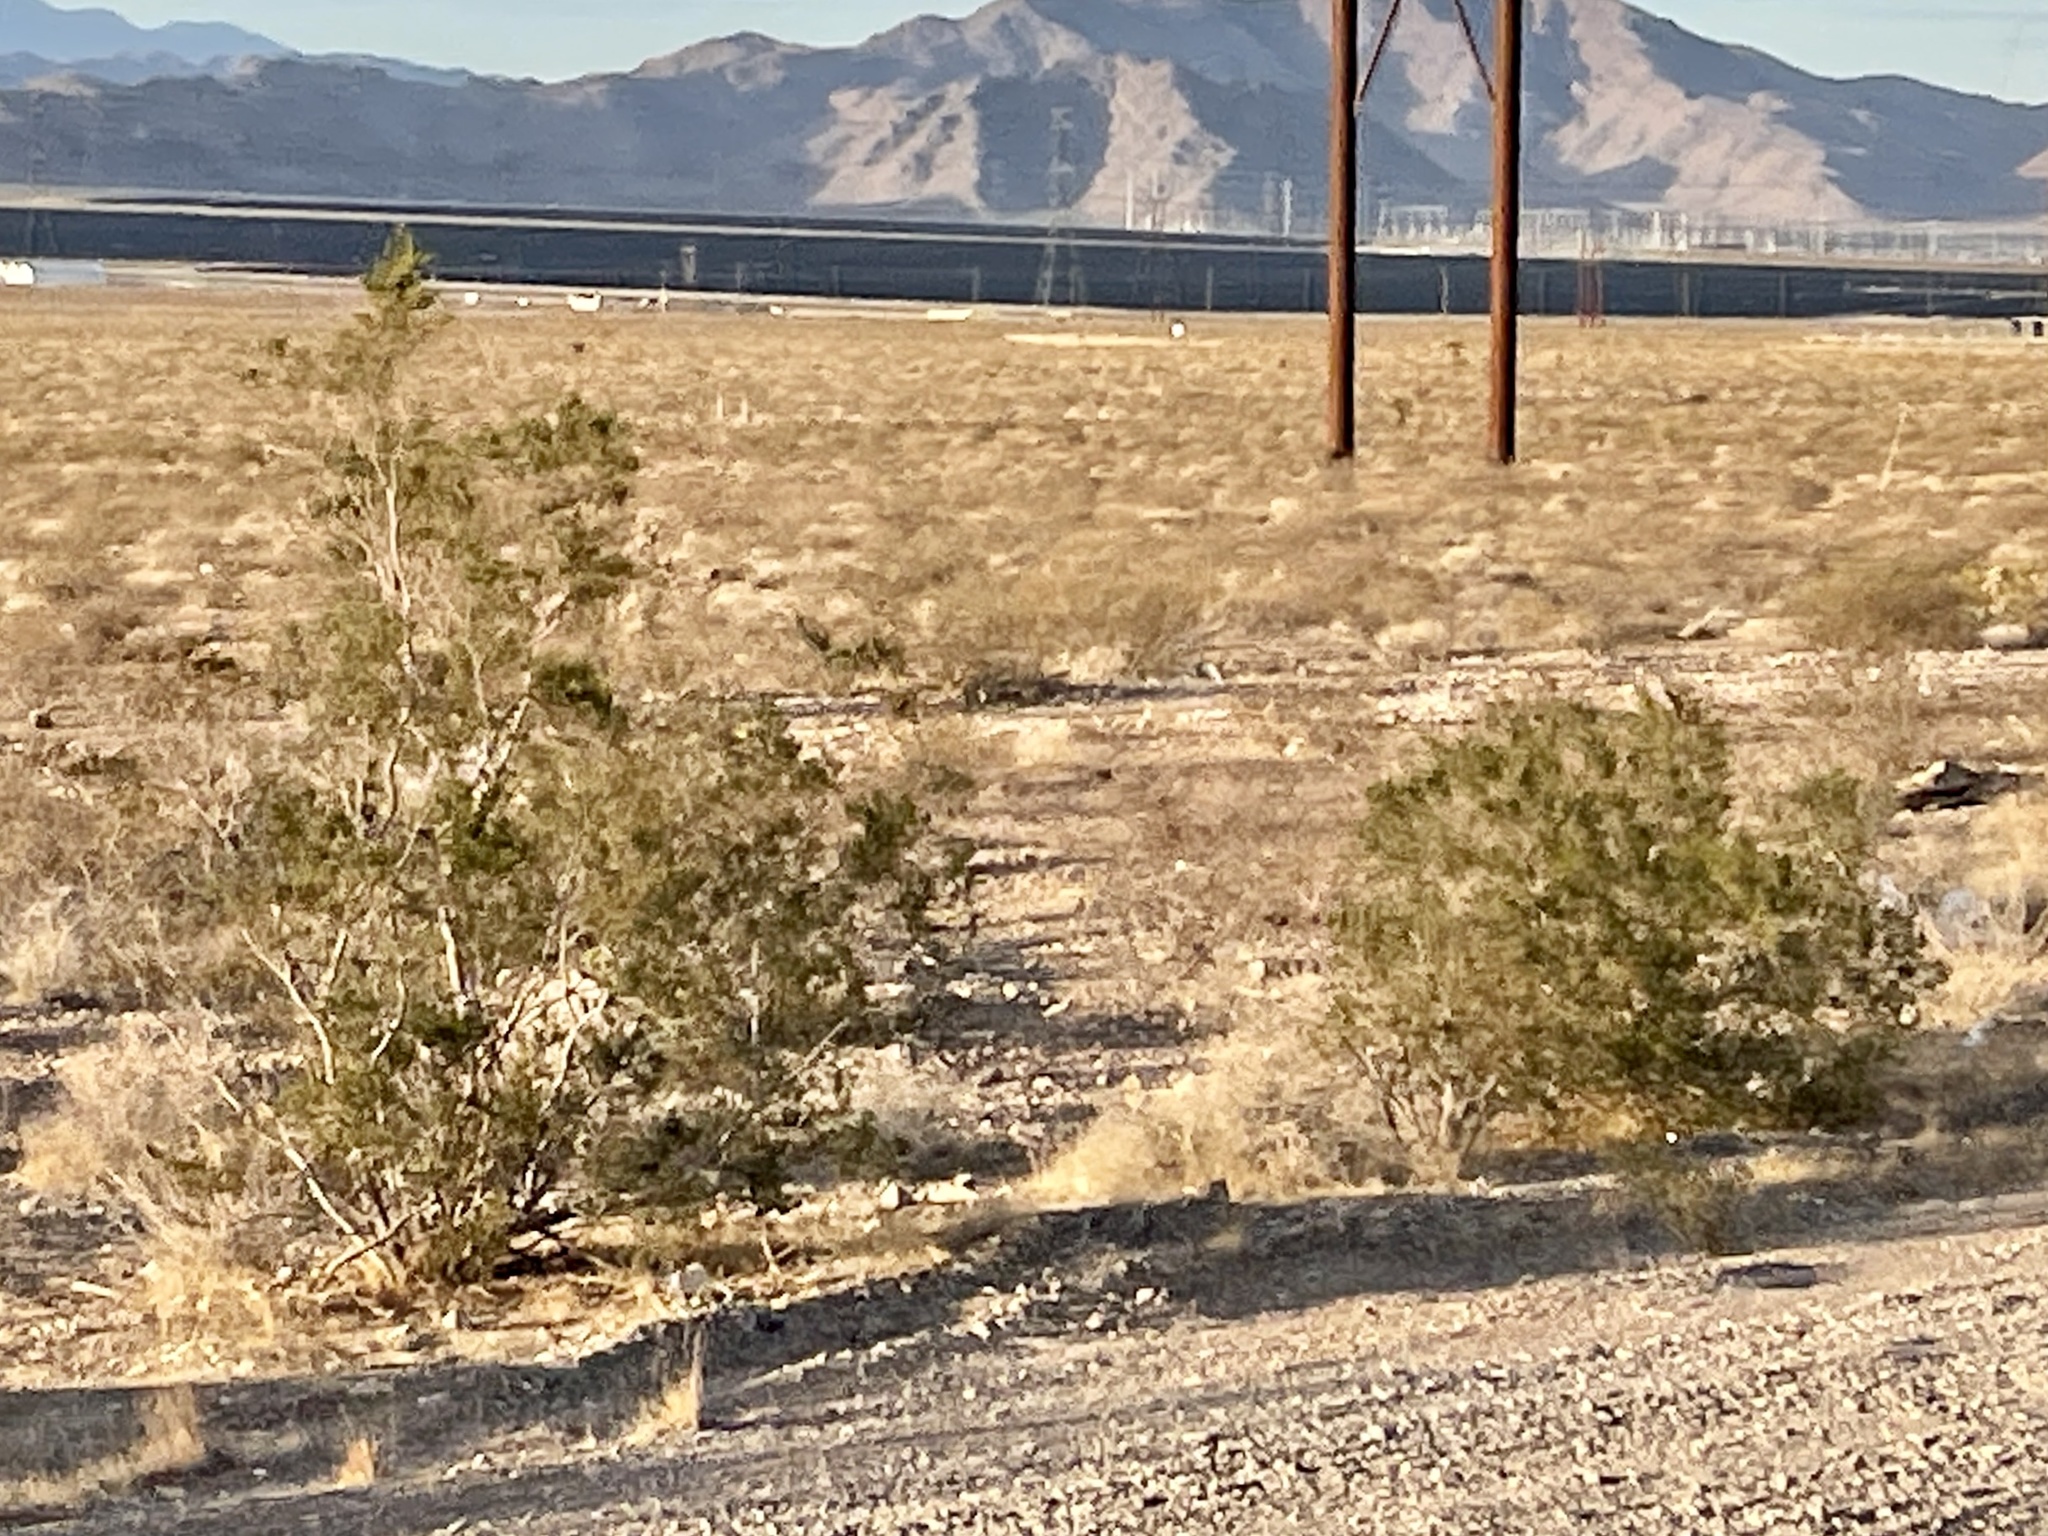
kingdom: Plantae
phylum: Tracheophyta
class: Magnoliopsida
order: Zygophyllales
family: Zygophyllaceae
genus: Larrea
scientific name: Larrea tridentata
